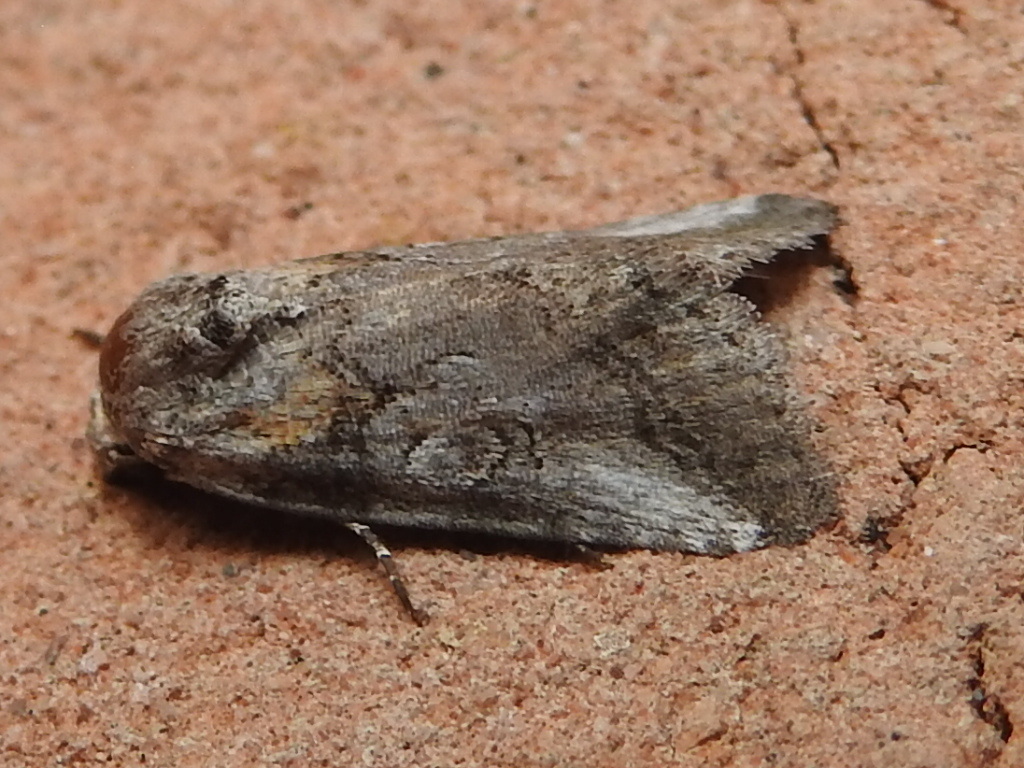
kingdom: Animalia
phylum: Arthropoda
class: Insecta
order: Lepidoptera
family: Noctuidae
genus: Aleptina
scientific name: Aleptina inca
